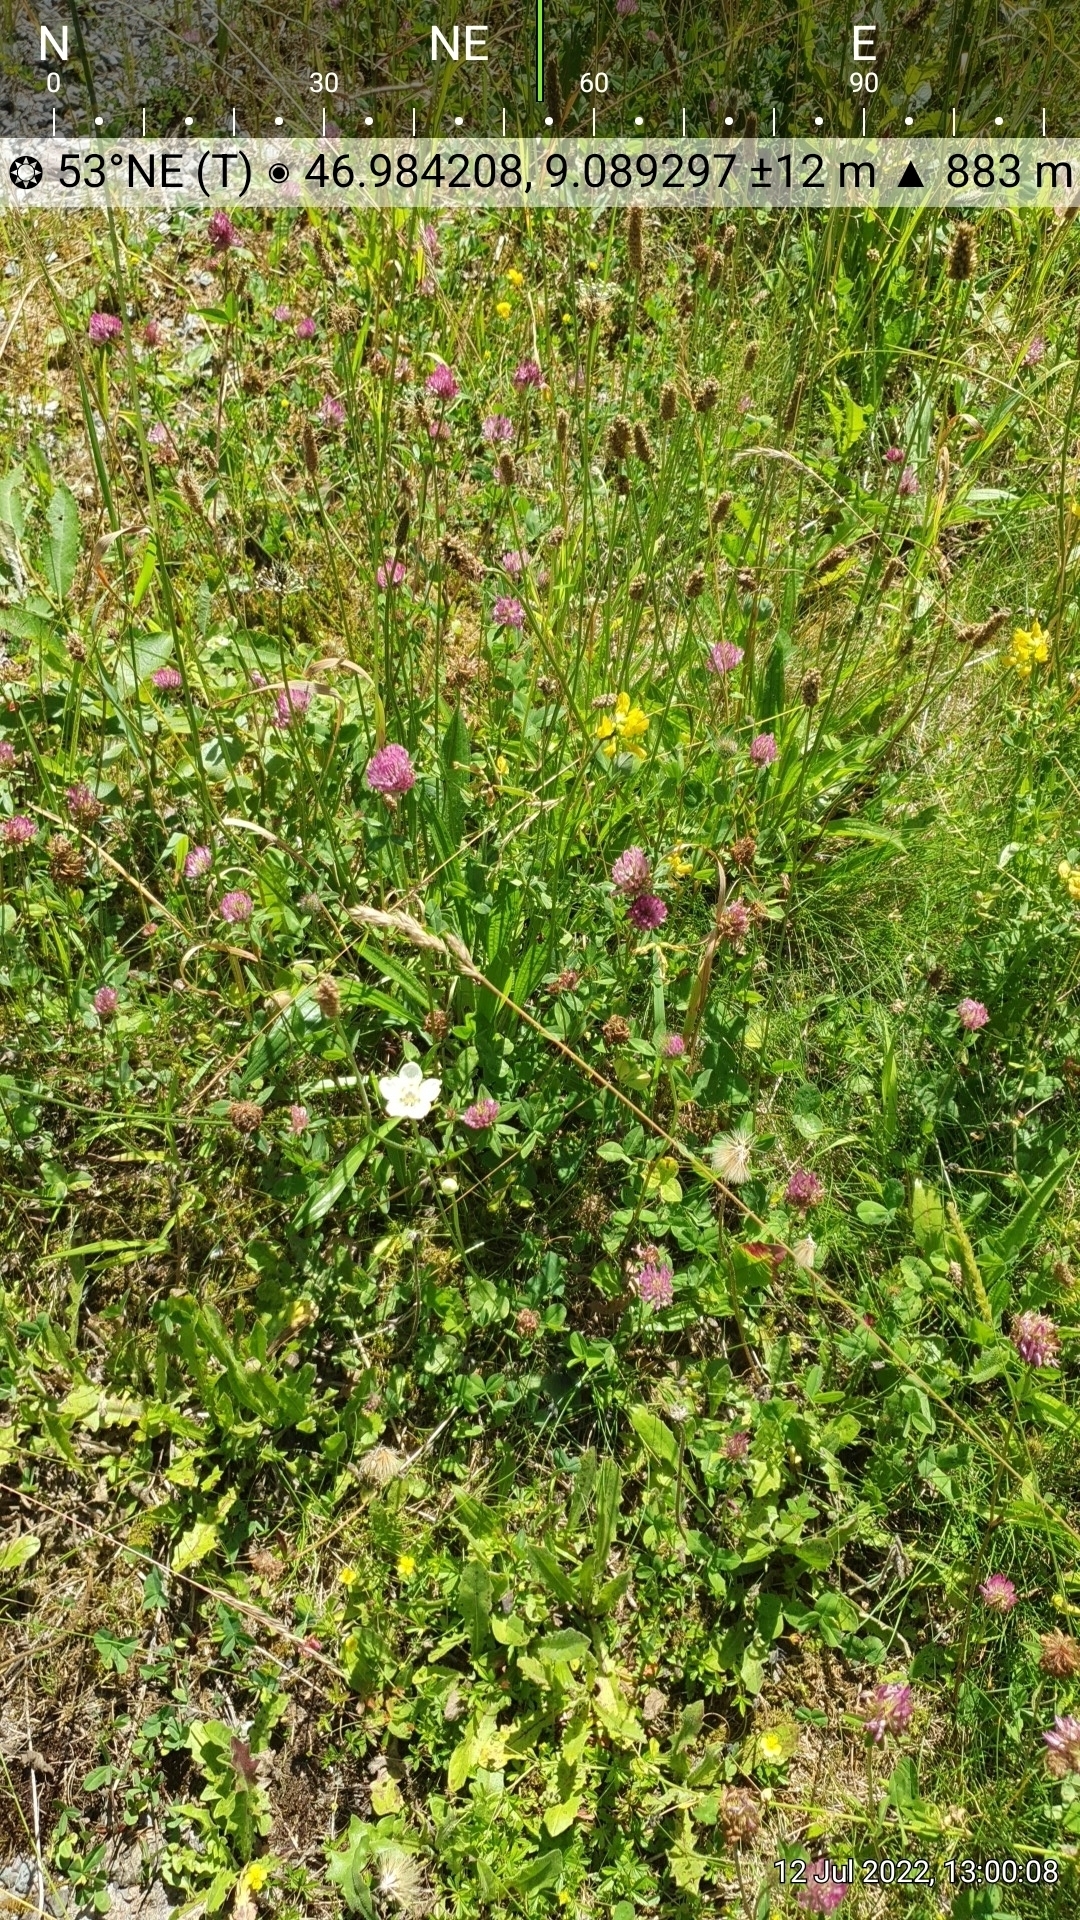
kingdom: Plantae
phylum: Tracheophyta
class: Magnoliopsida
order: Celastrales
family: Parnassiaceae
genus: Parnassia
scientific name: Parnassia palustris
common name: Grass-of-parnassus
